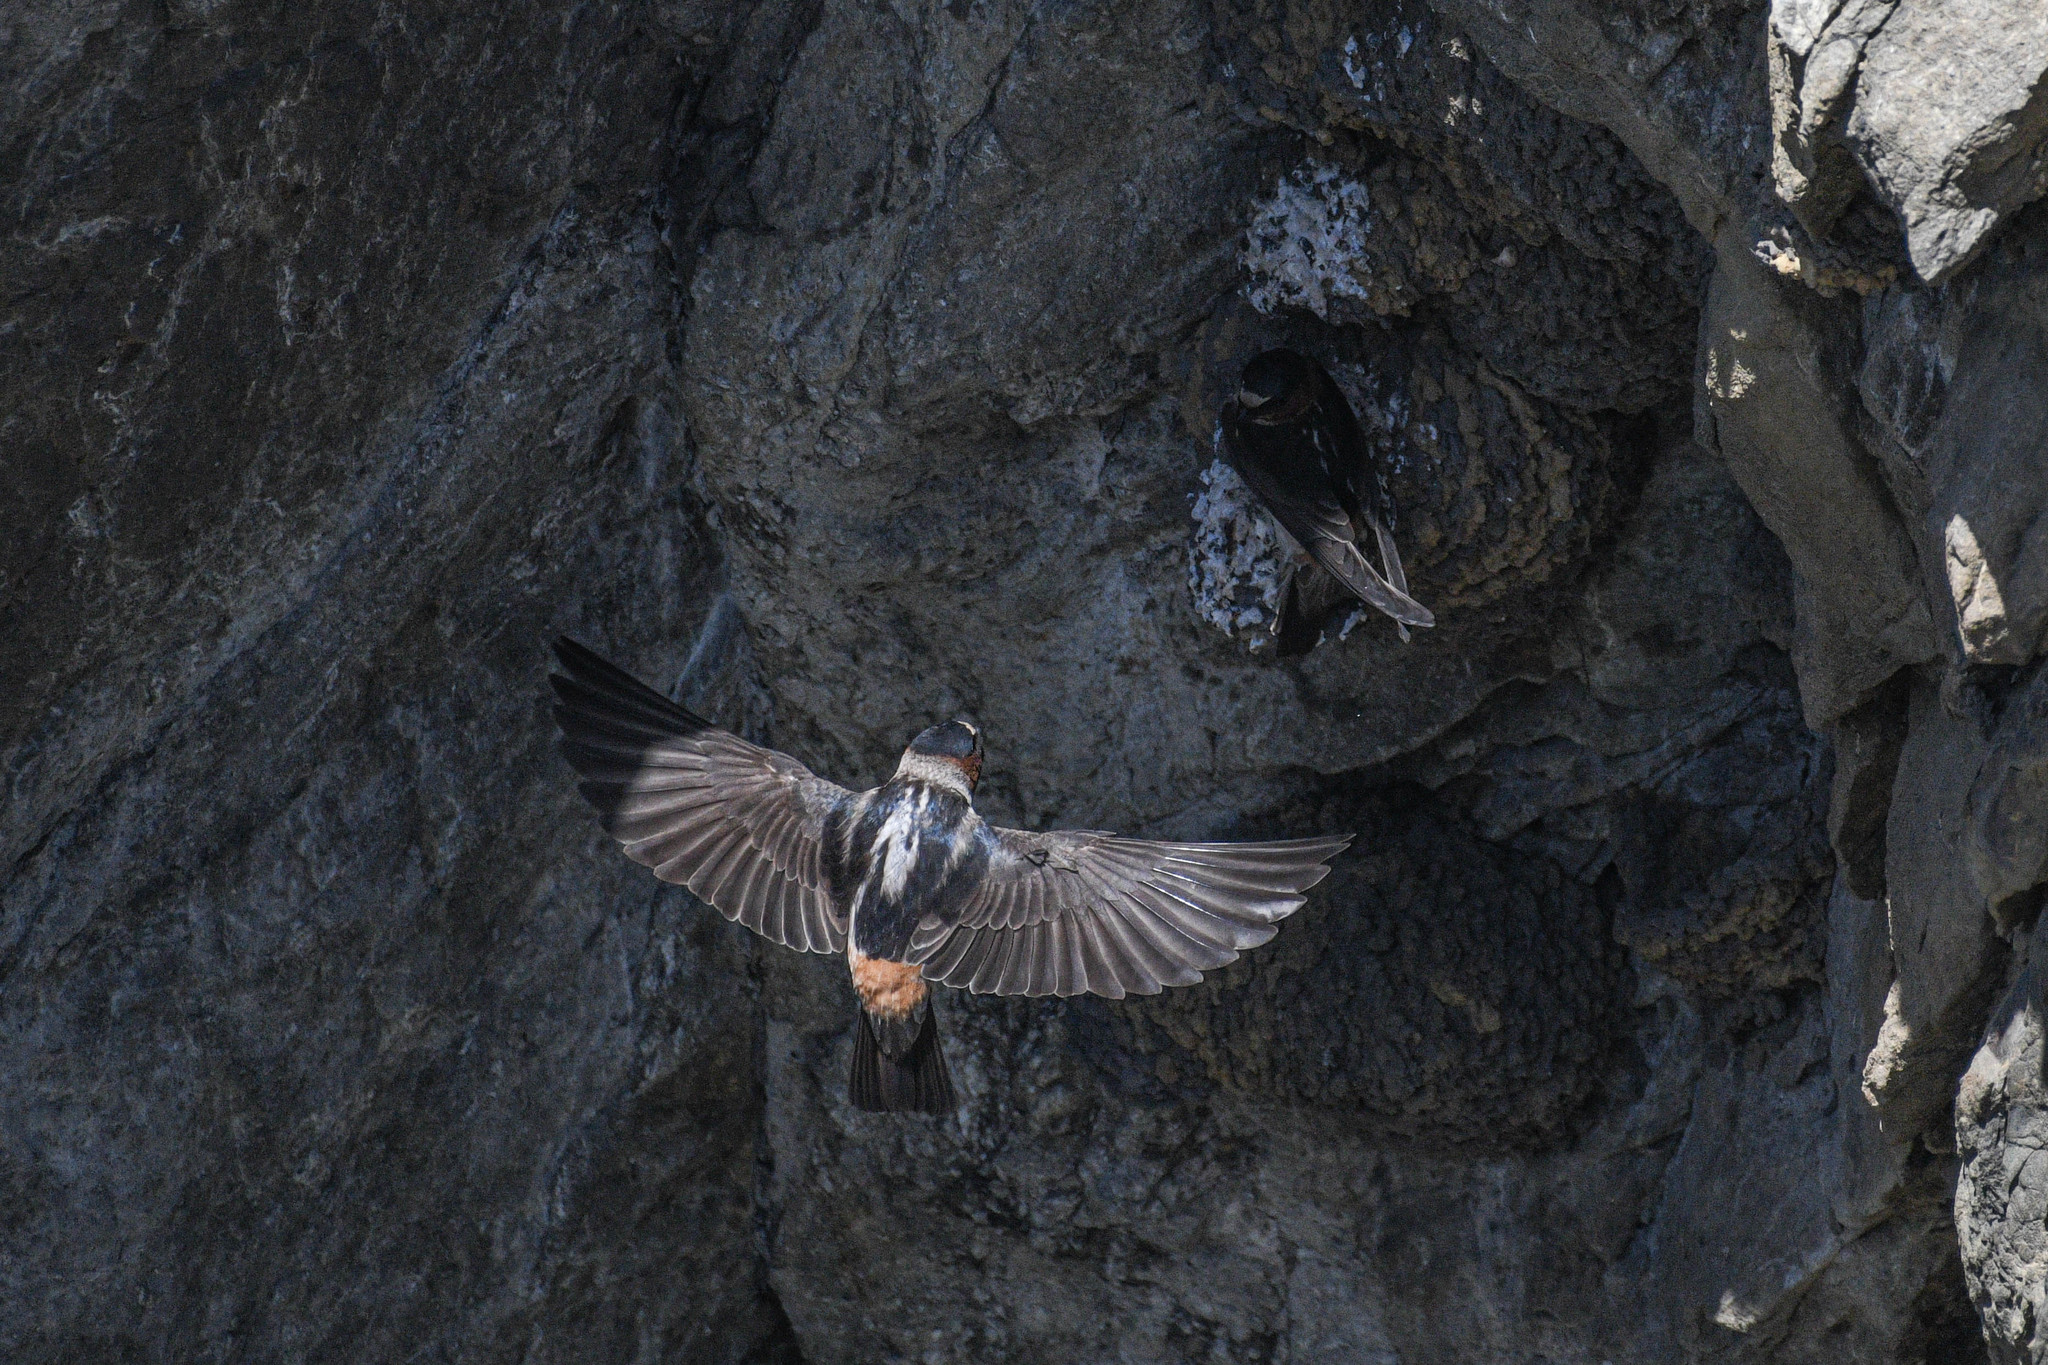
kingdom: Animalia
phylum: Chordata
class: Aves
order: Passeriformes
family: Hirundinidae
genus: Petrochelidon
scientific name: Petrochelidon pyrrhonota
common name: American cliff swallow
